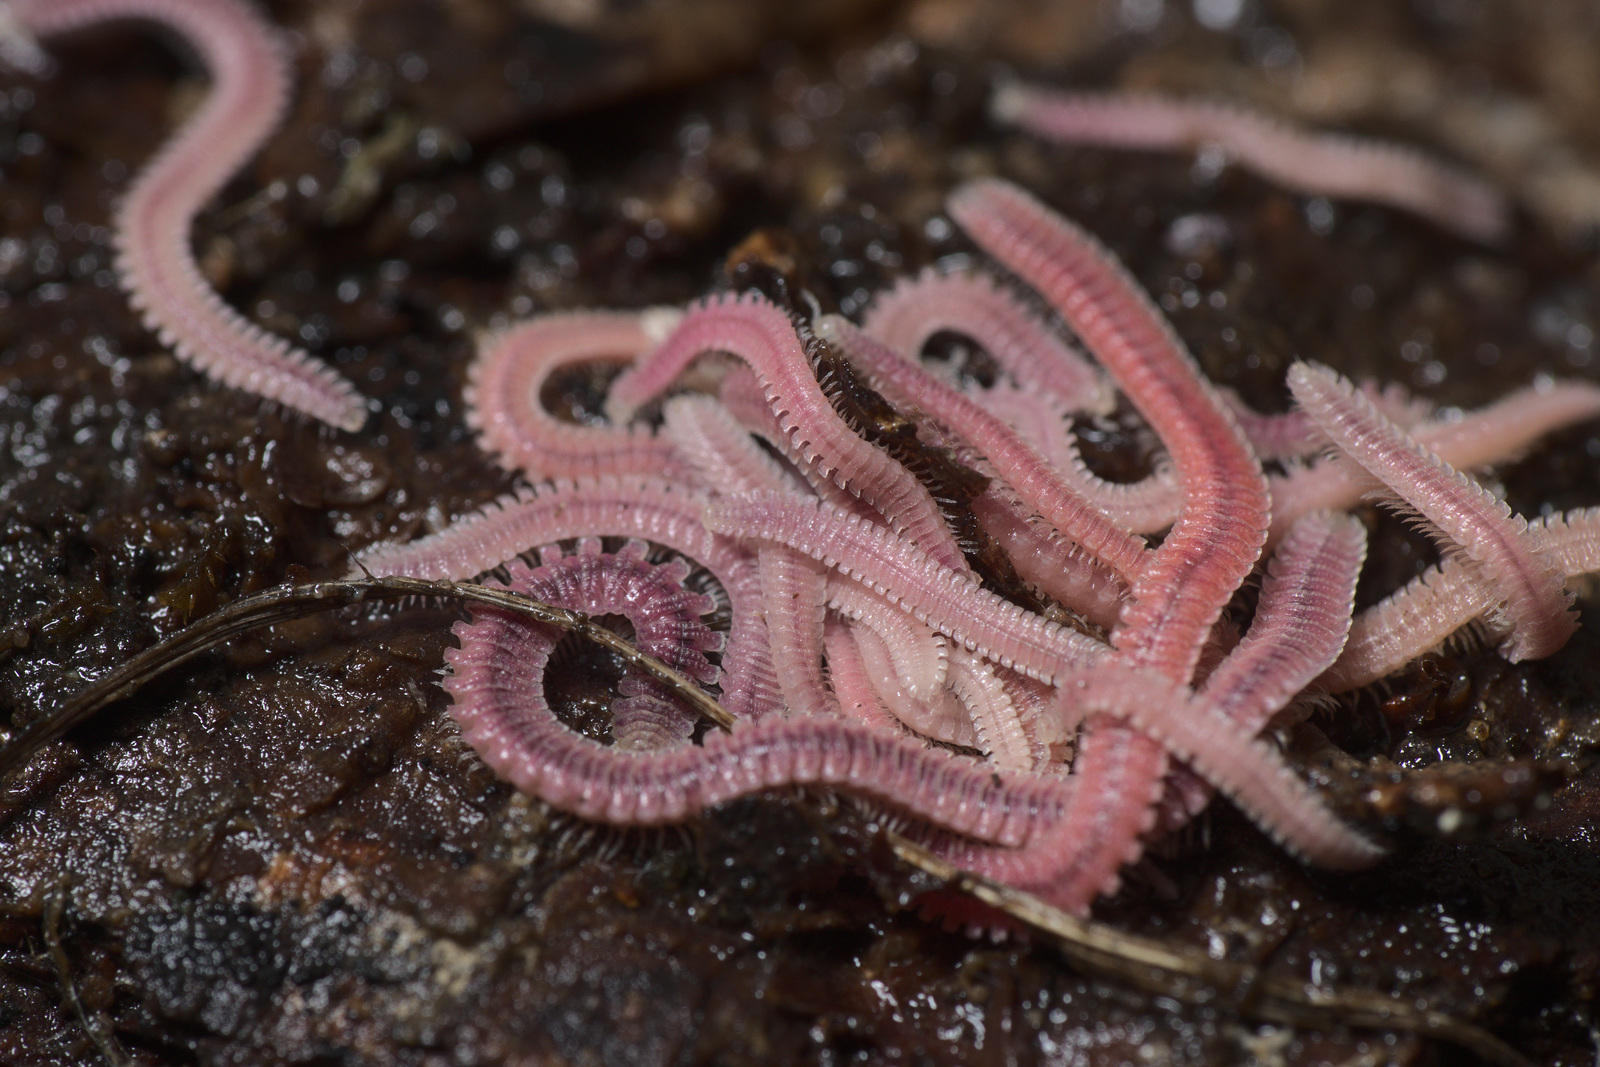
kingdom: Animalia
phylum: Arthropoda
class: Diplopoda
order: Platydesmida
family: Andrognathidae
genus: Gosodesmus
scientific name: Gosodesmus claremontus
